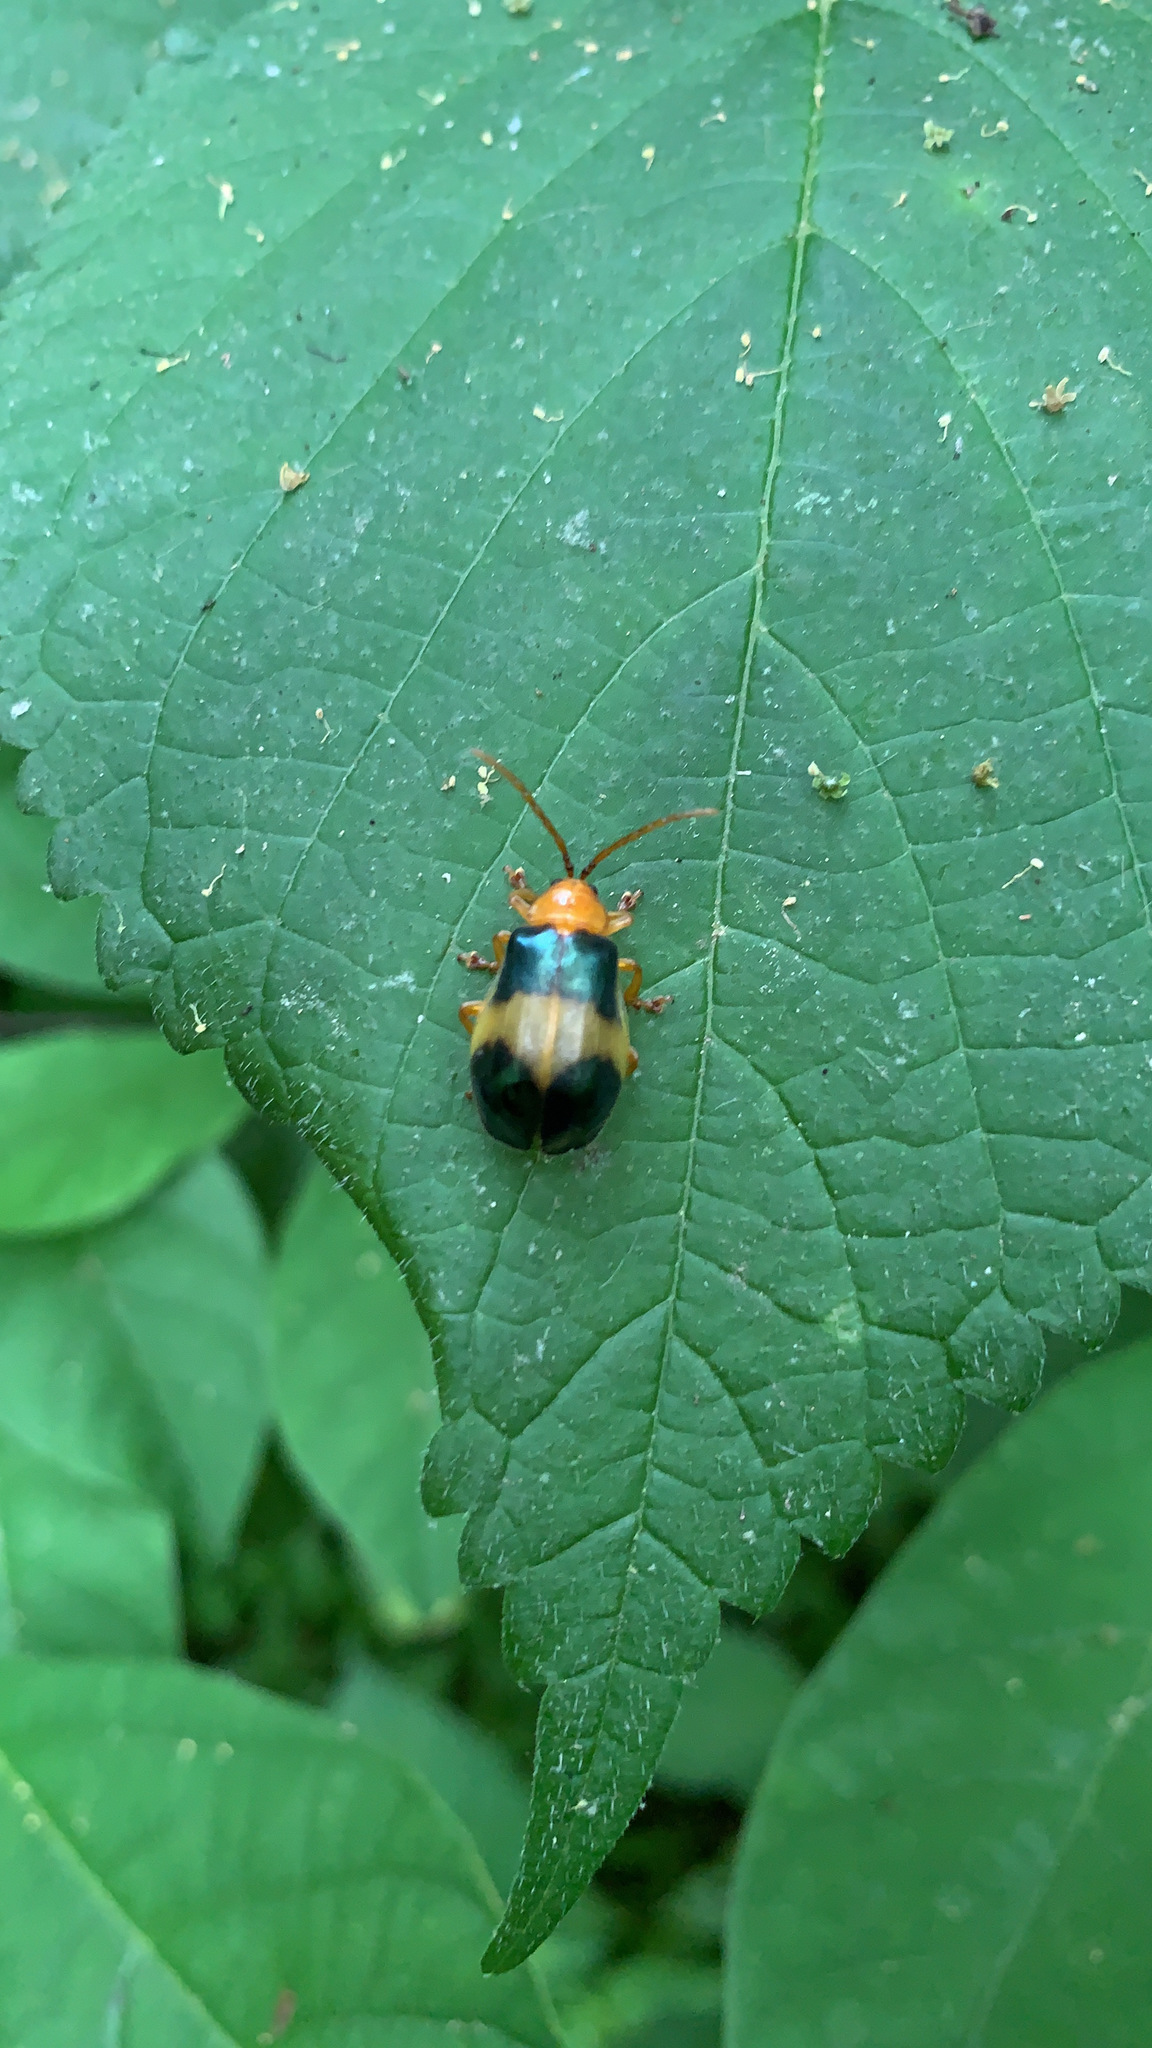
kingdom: Animalia
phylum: Arthropoda
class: Insecta
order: Coleoptera
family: Chrysomelidae
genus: Monocesta
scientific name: Monocesta coryli
